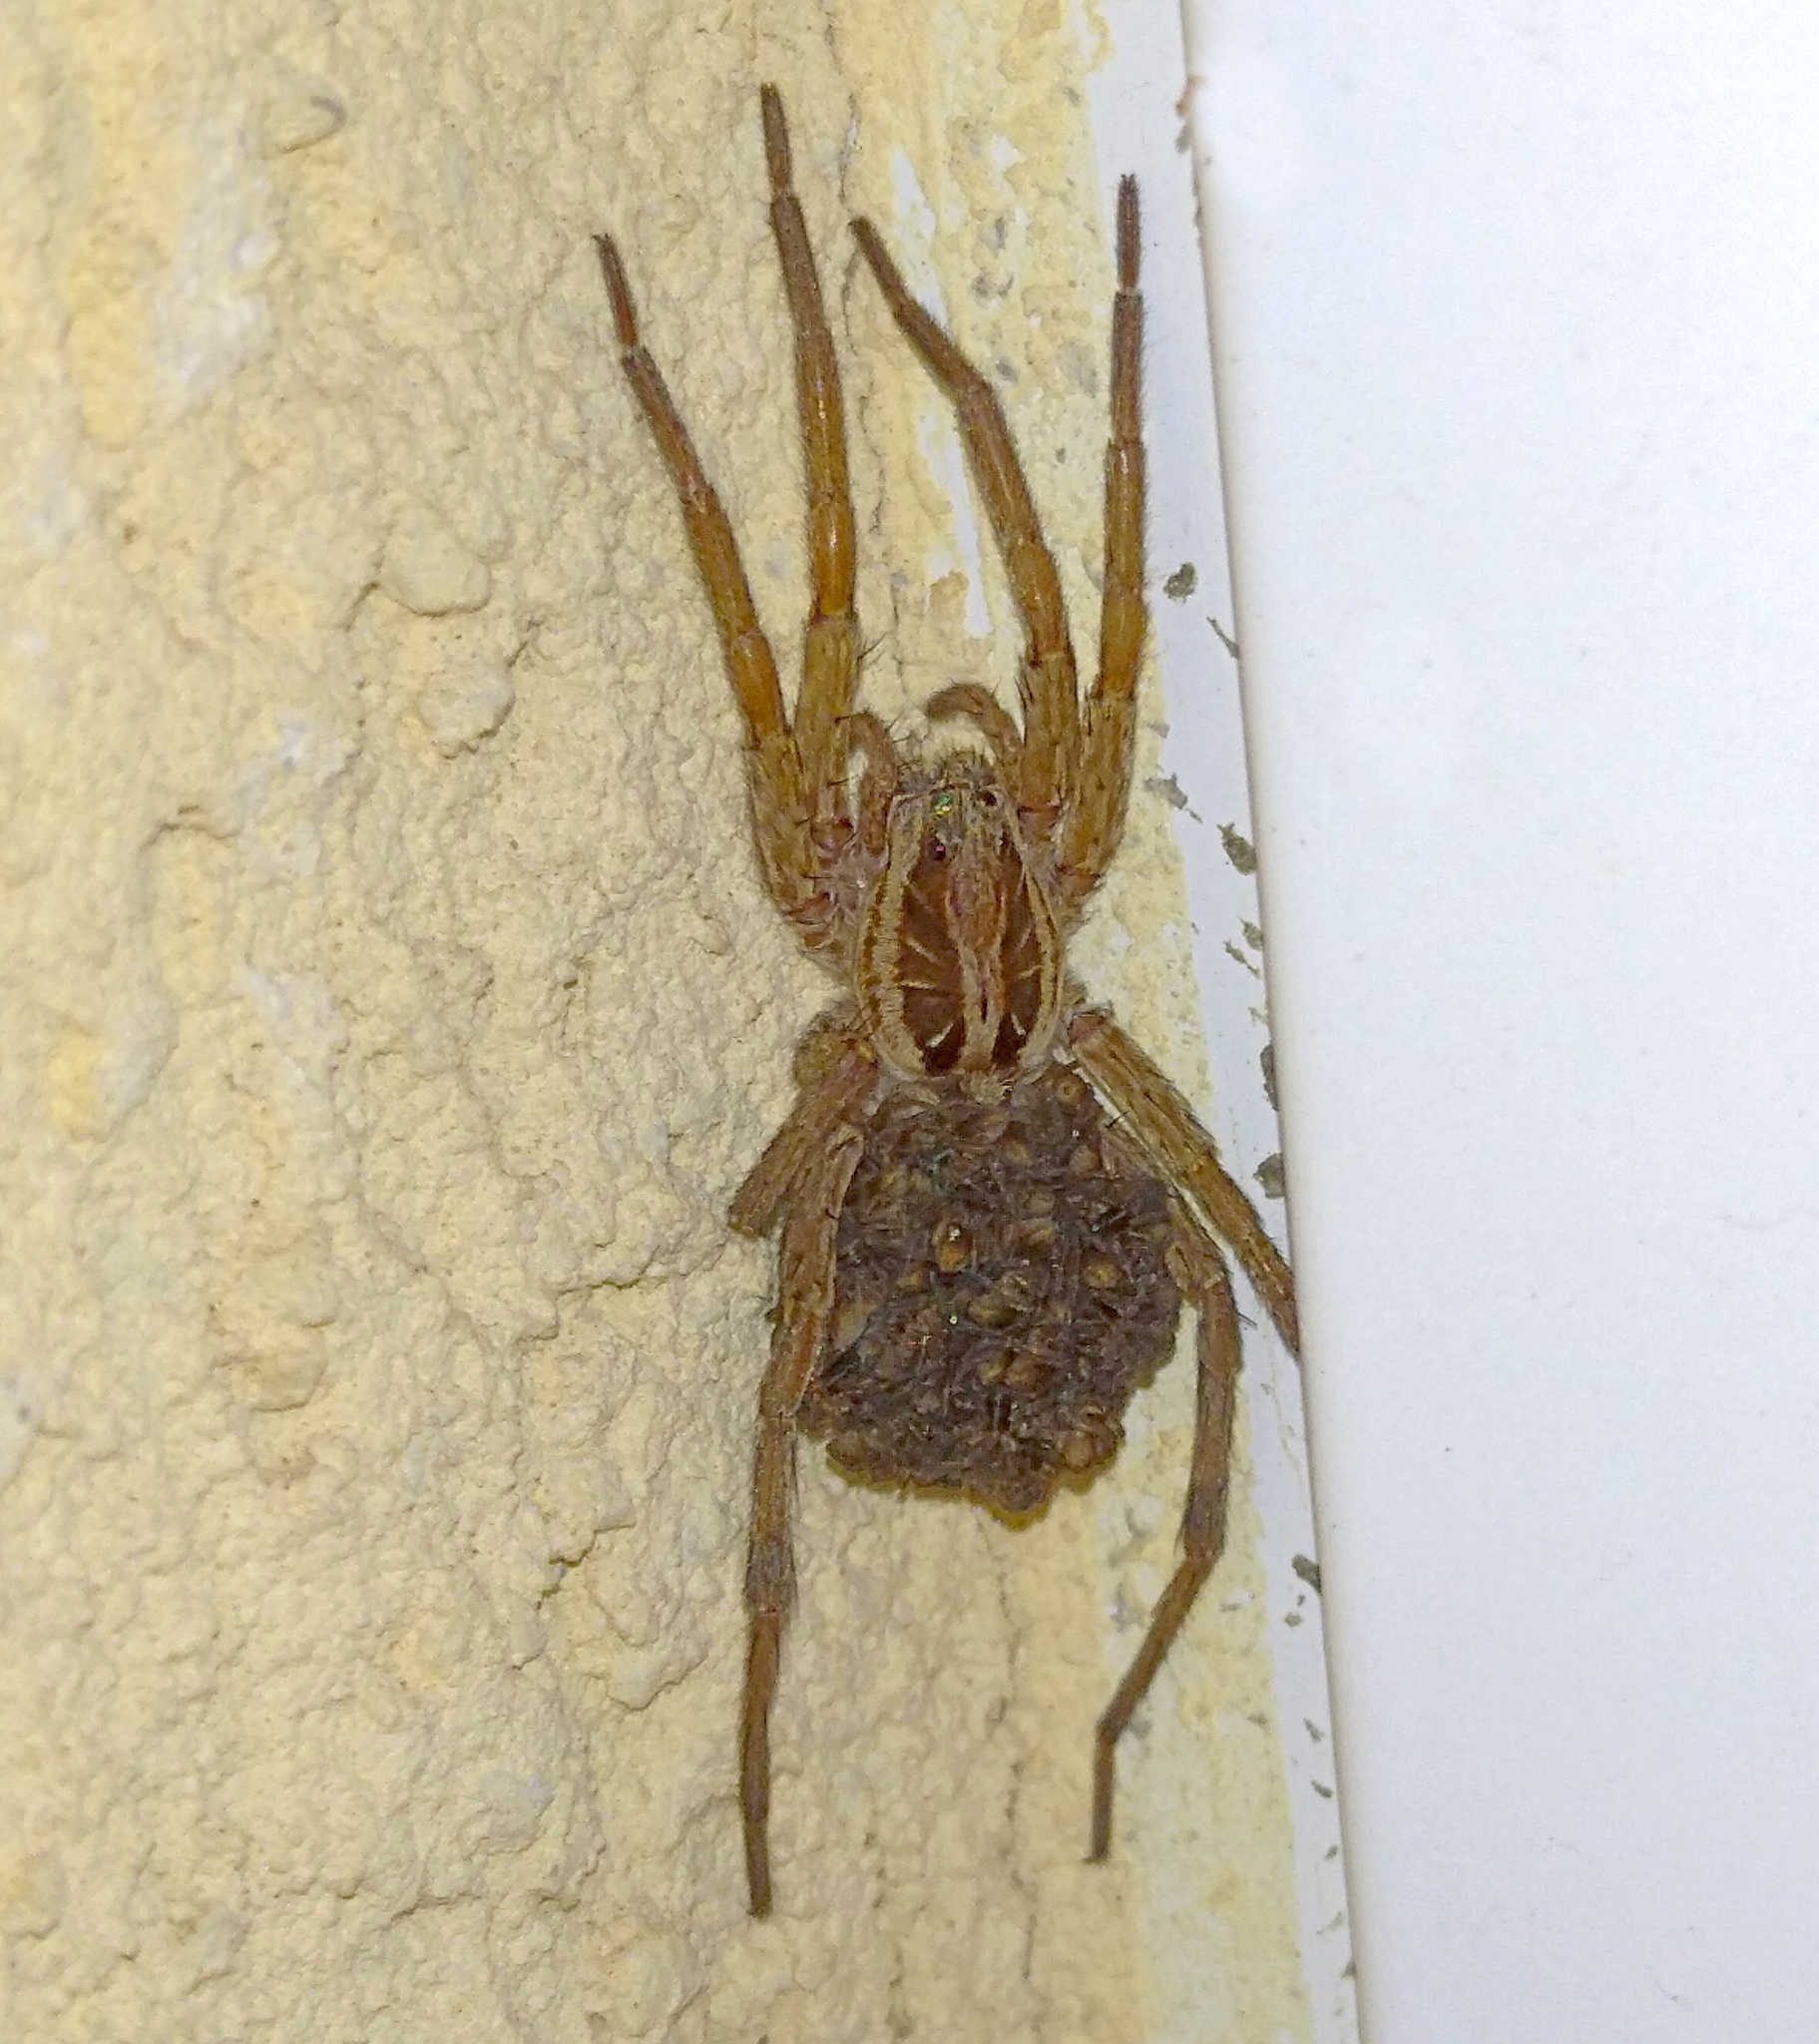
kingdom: Animalia
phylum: Arthropoda
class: Arachnida
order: Araneae
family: Lycosidae
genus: Hogna
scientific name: Hogna radiata
